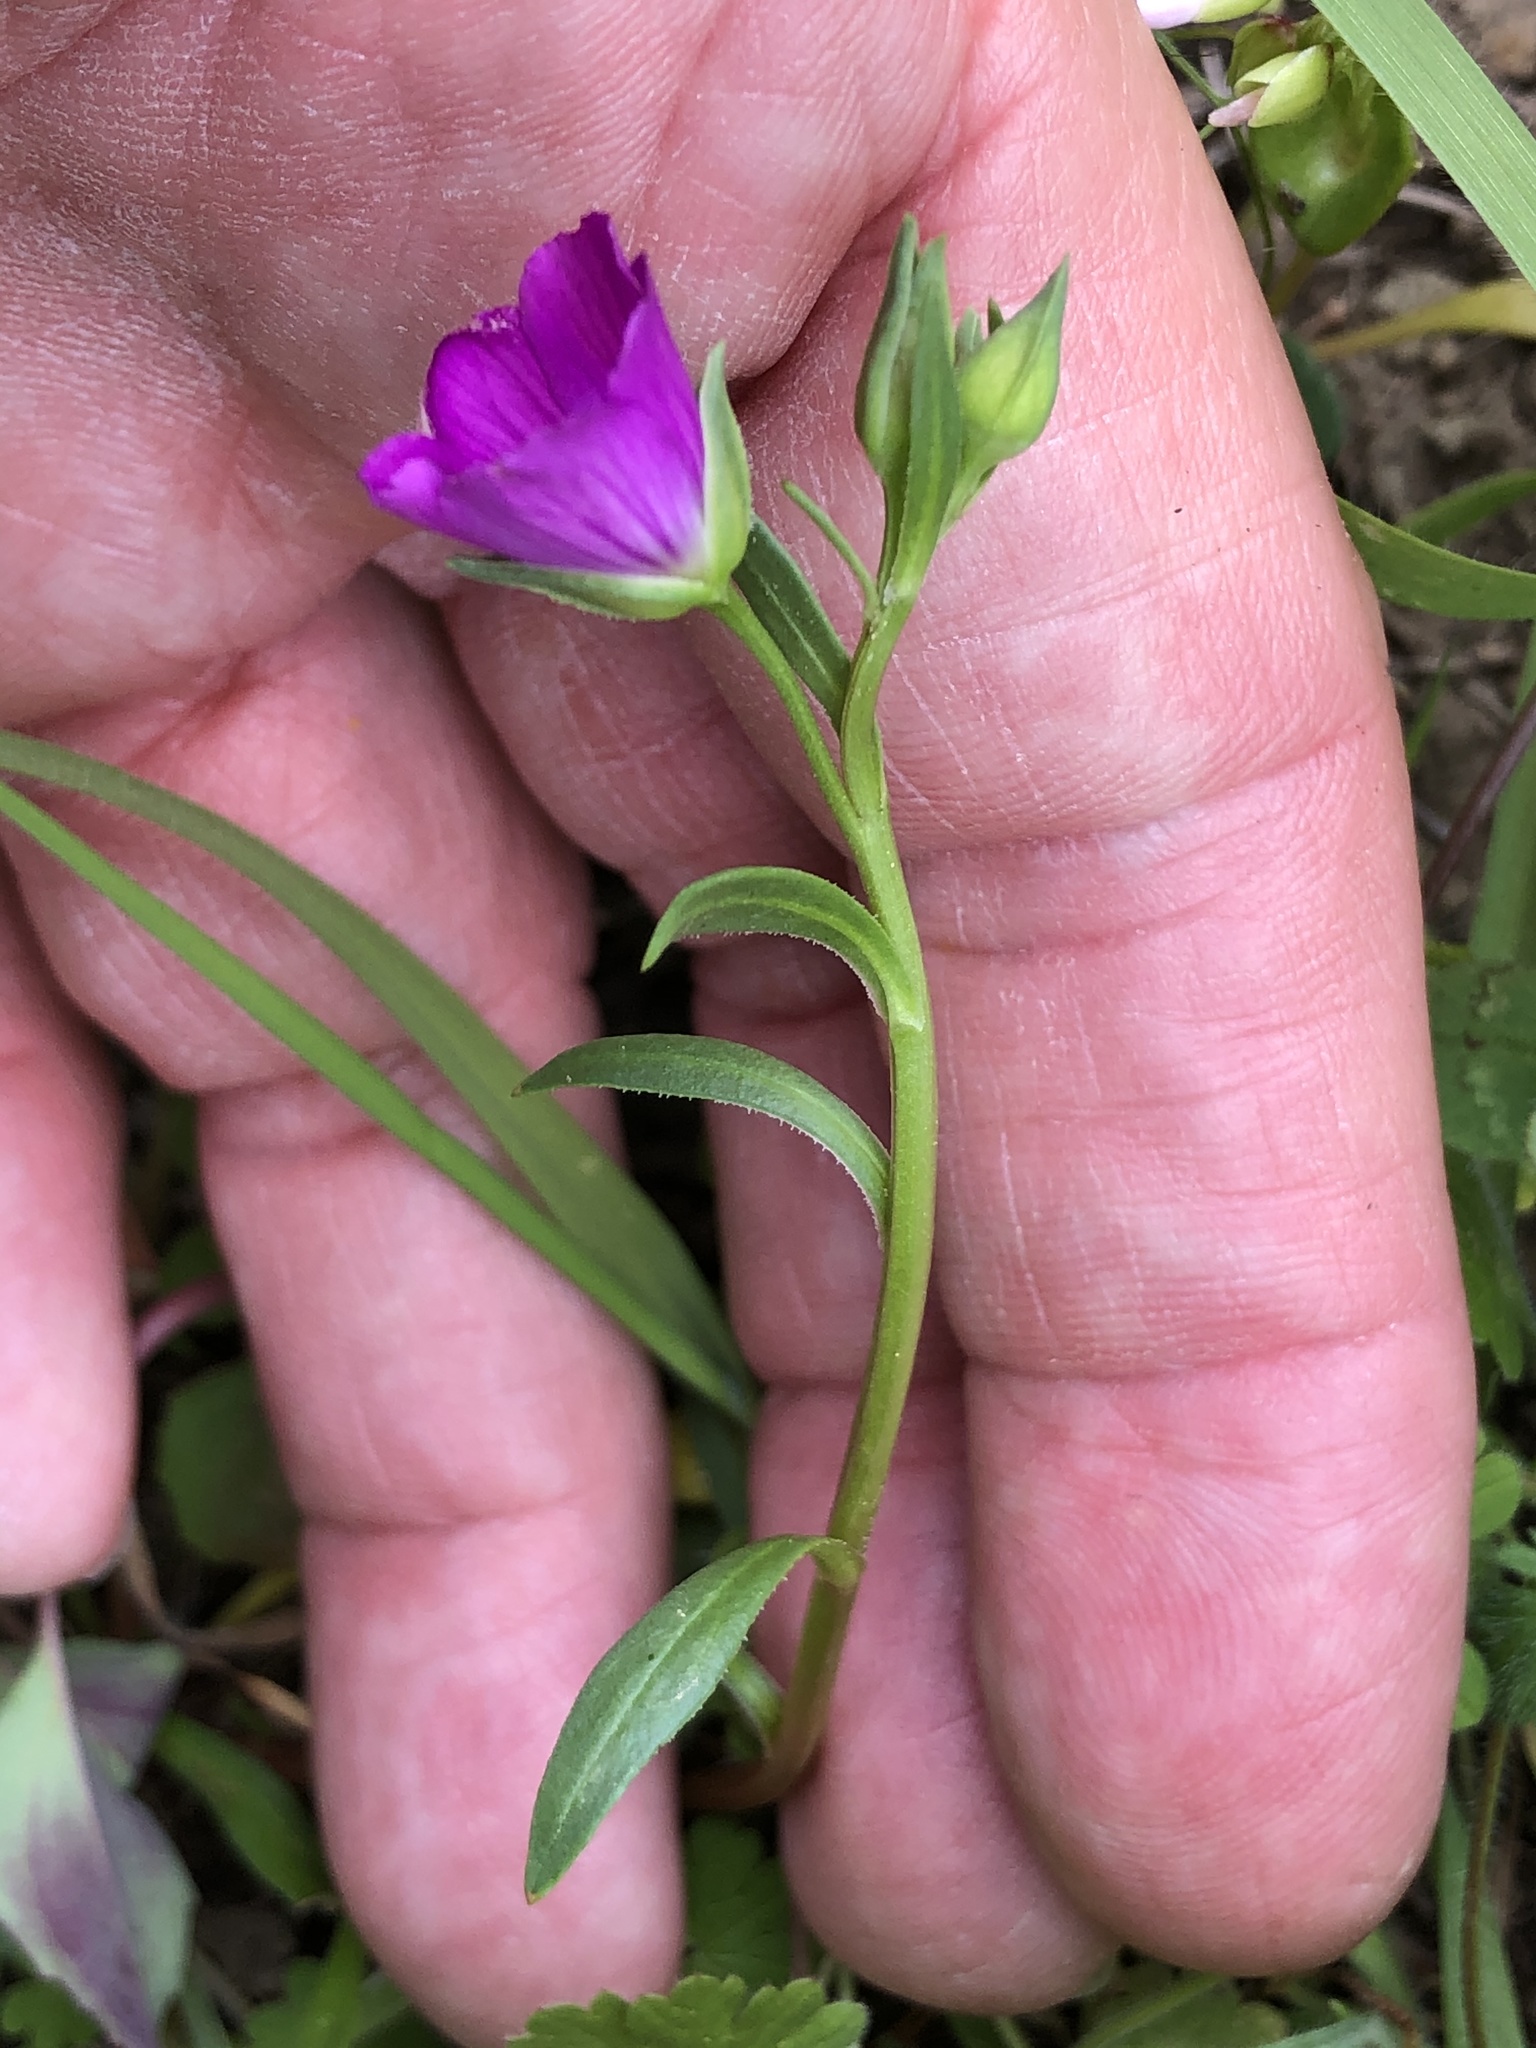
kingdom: Plantae
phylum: Tracheophyta
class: Magnoliopsida
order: Caryophyllales
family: Montiaceae
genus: Calandrinia
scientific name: Calandrinia menziesii
